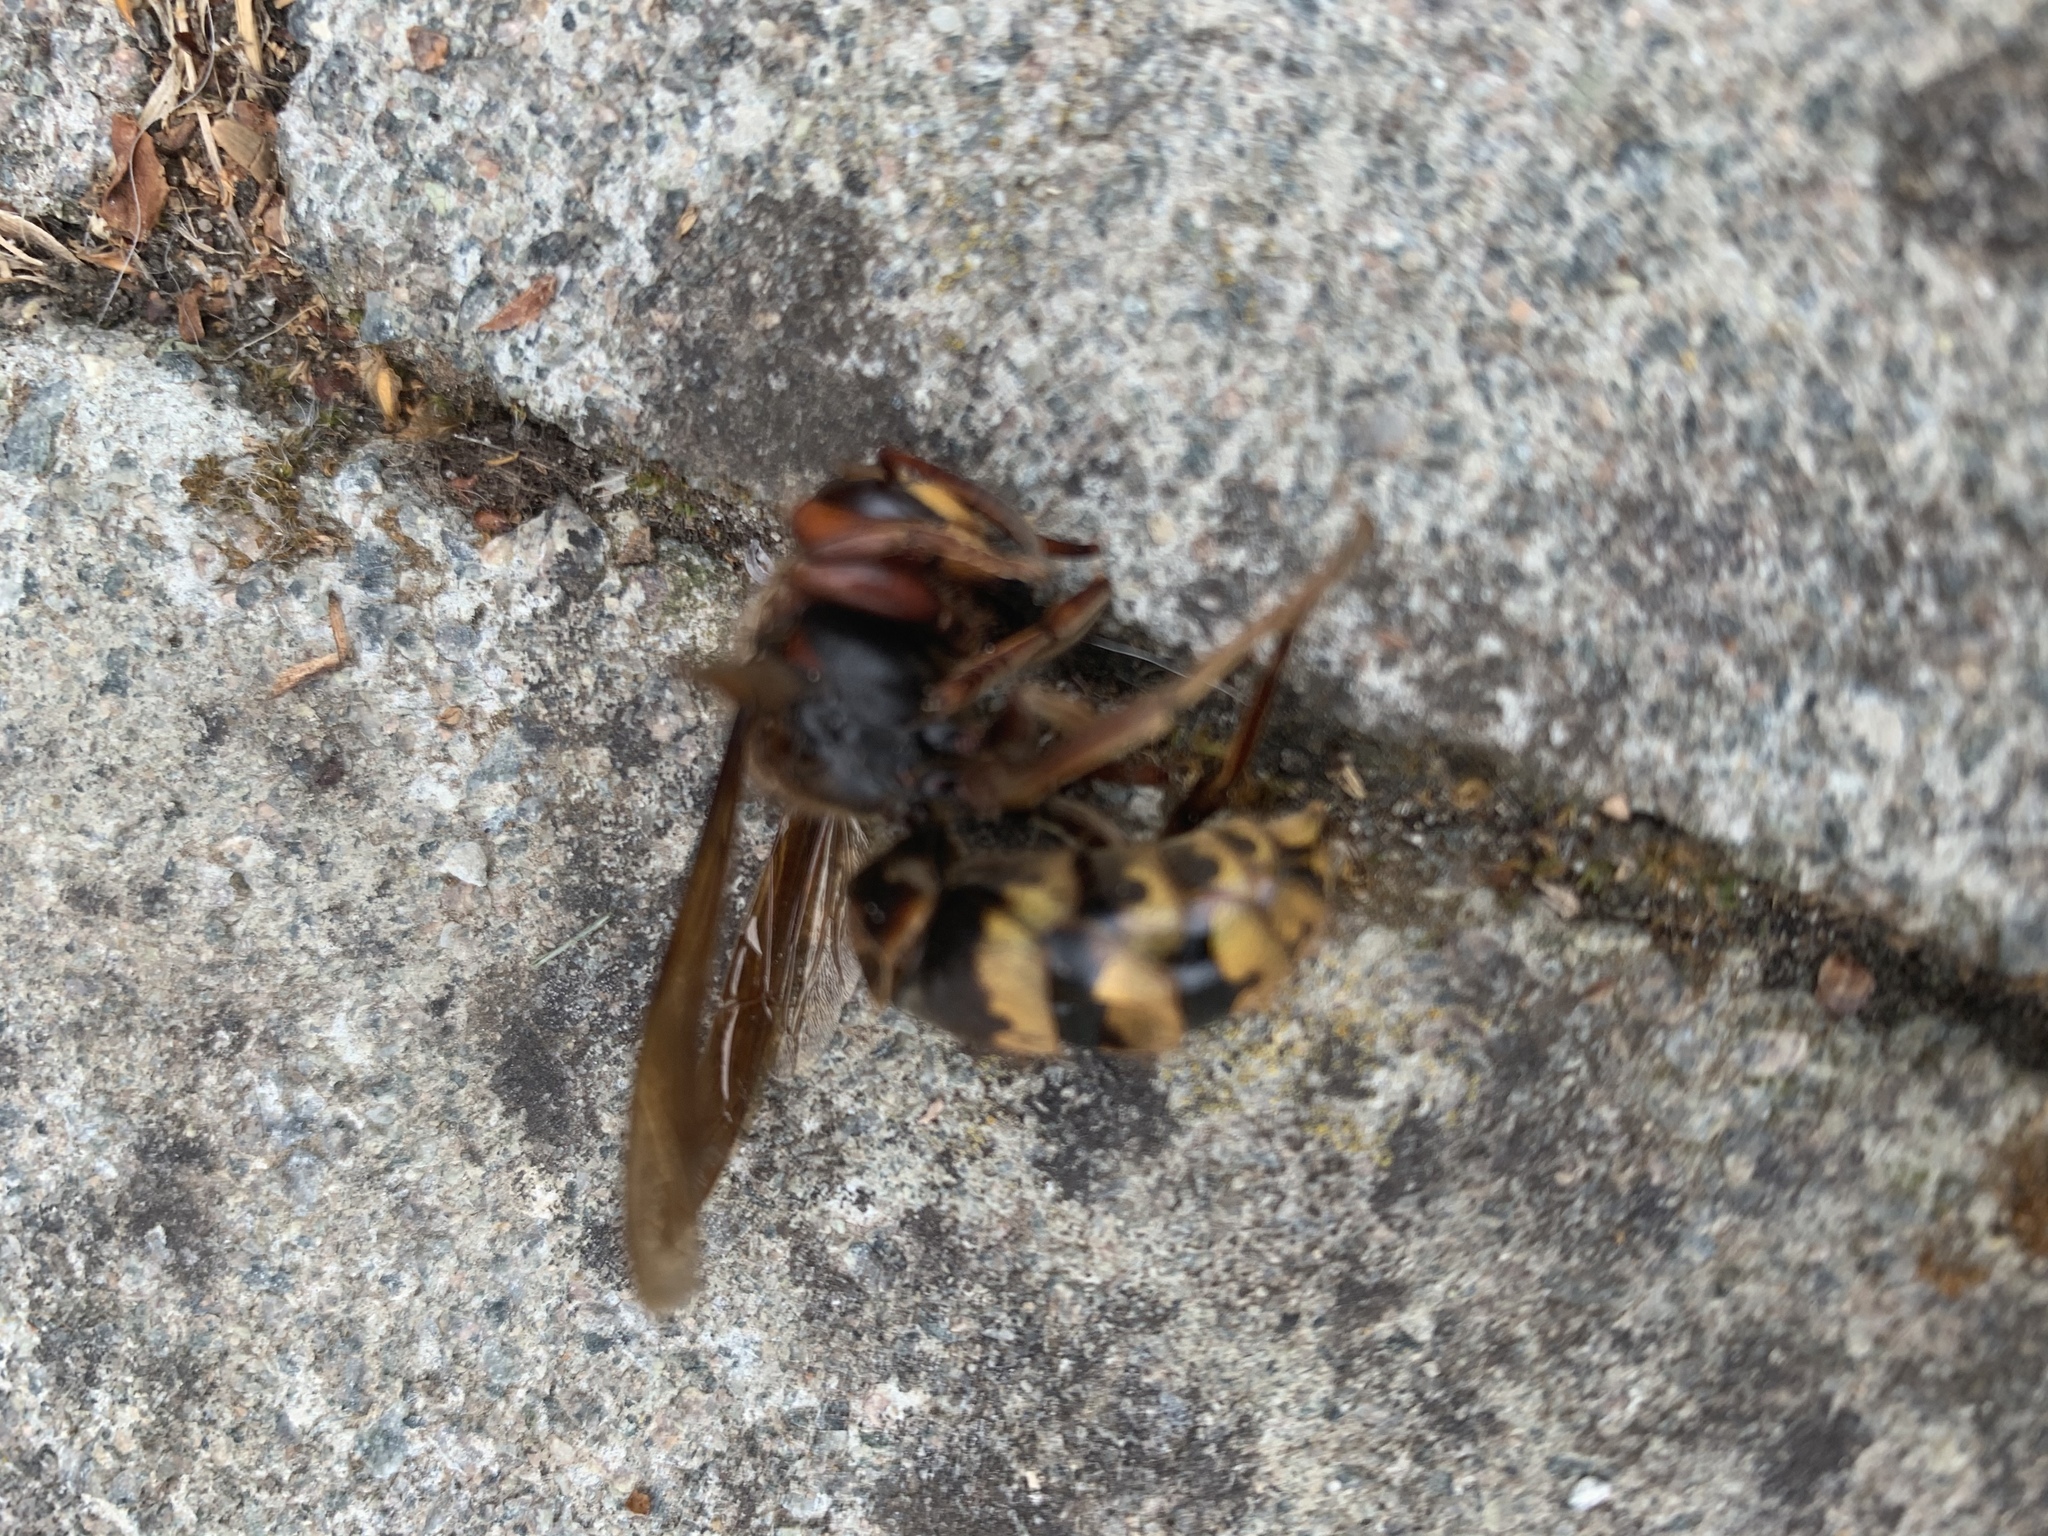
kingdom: Animalia
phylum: Arthropoda
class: Insecta
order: Hymenoptera
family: Vespidae
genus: Vespa
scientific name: Vespa crabro
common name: Hornet
